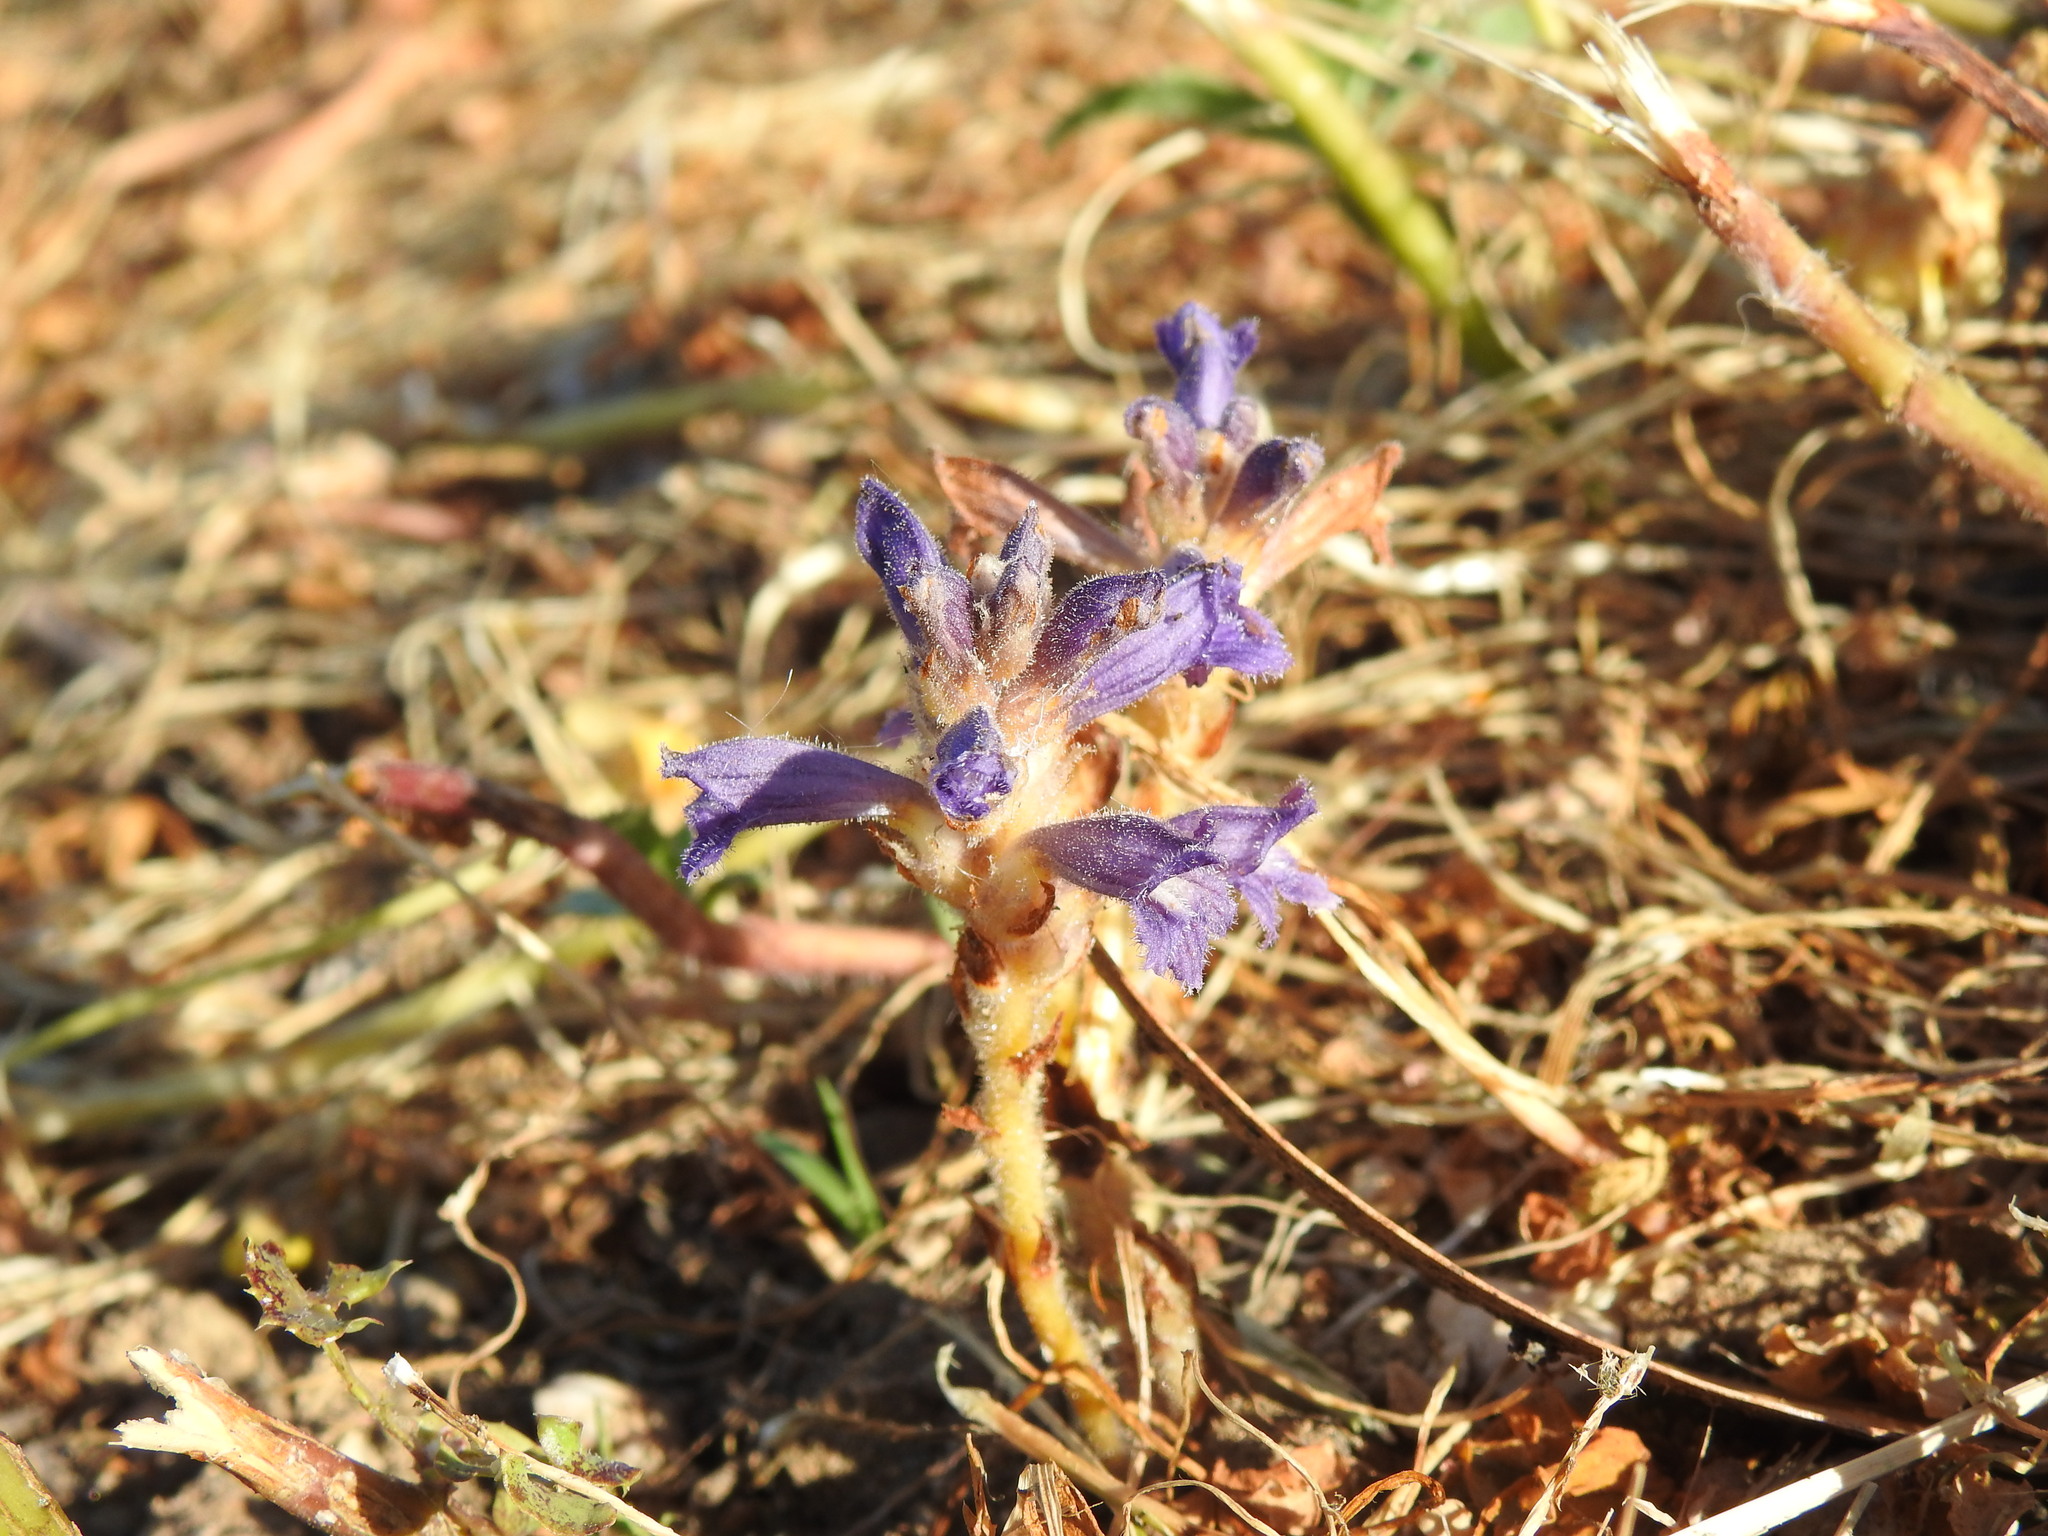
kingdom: Plantae
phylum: Tracheophyta
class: Magnoliopsida
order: Lamiales
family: Orobanchaceae
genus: Phelipanche
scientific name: Phelipanche mutelii
